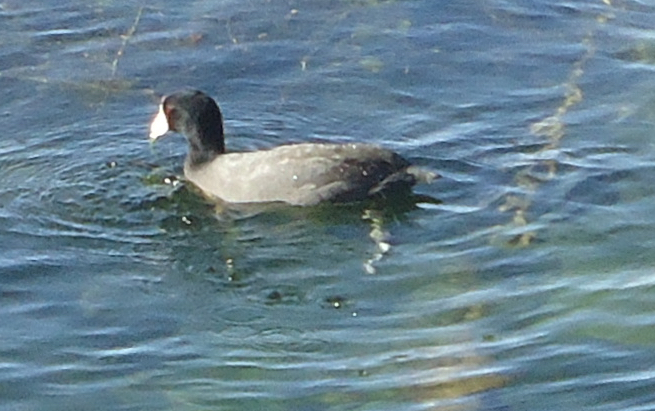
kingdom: Animalia
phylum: Chordata
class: Aves
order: Gruiformes
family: Rallidae
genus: Fulica
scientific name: Fulica americana
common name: American coot
